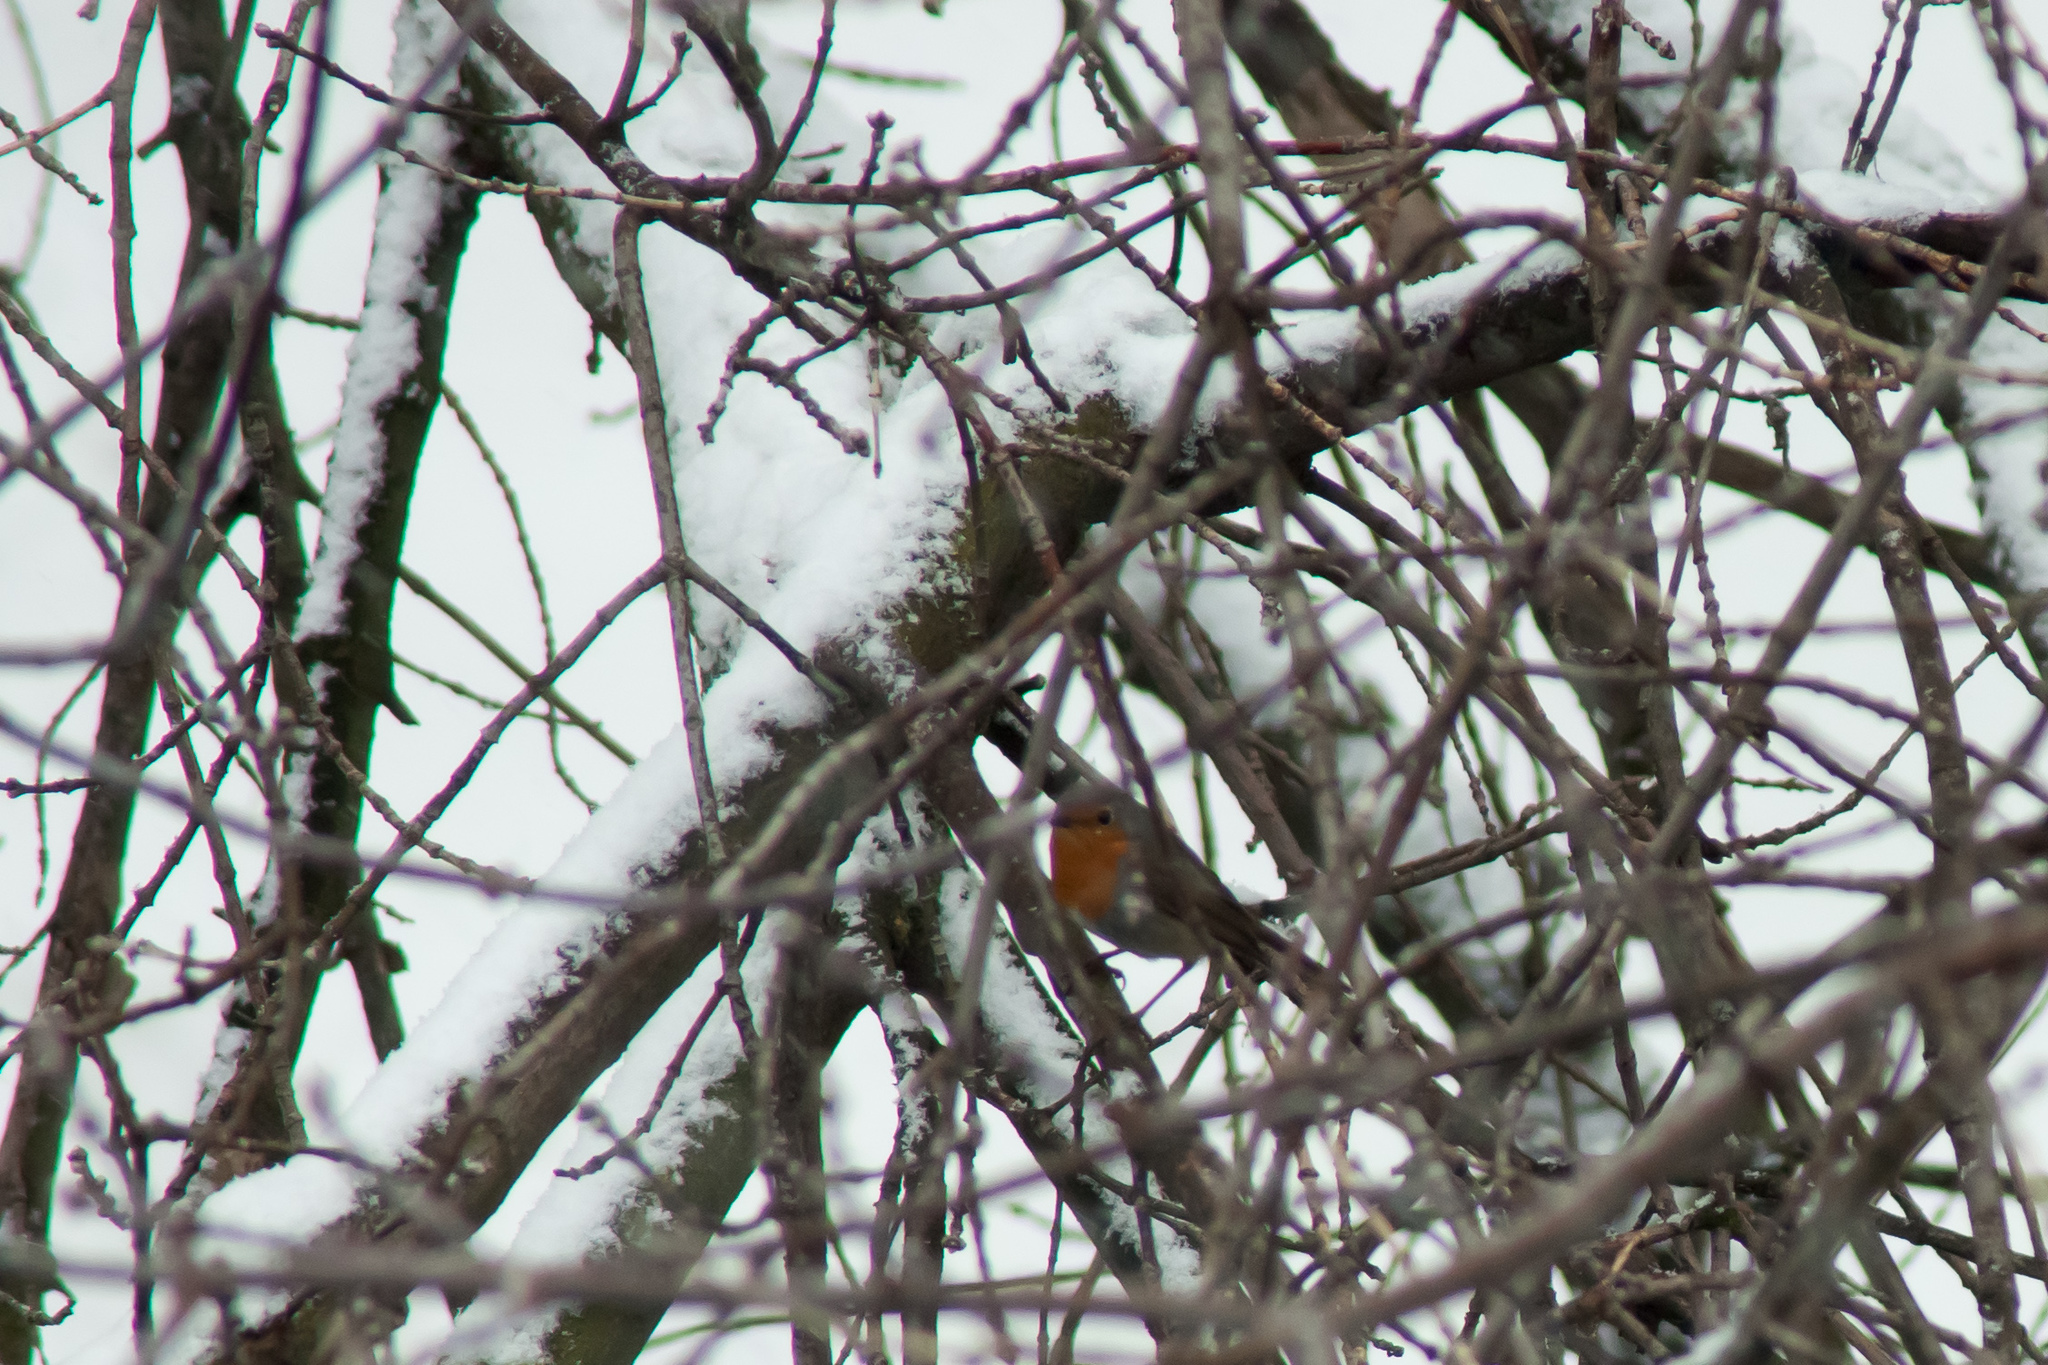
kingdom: Animalia
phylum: Chordata
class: Aves
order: Passeriformes
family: Muscicapidae
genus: Erithacus
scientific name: Erithacus rubecula
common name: European robin
